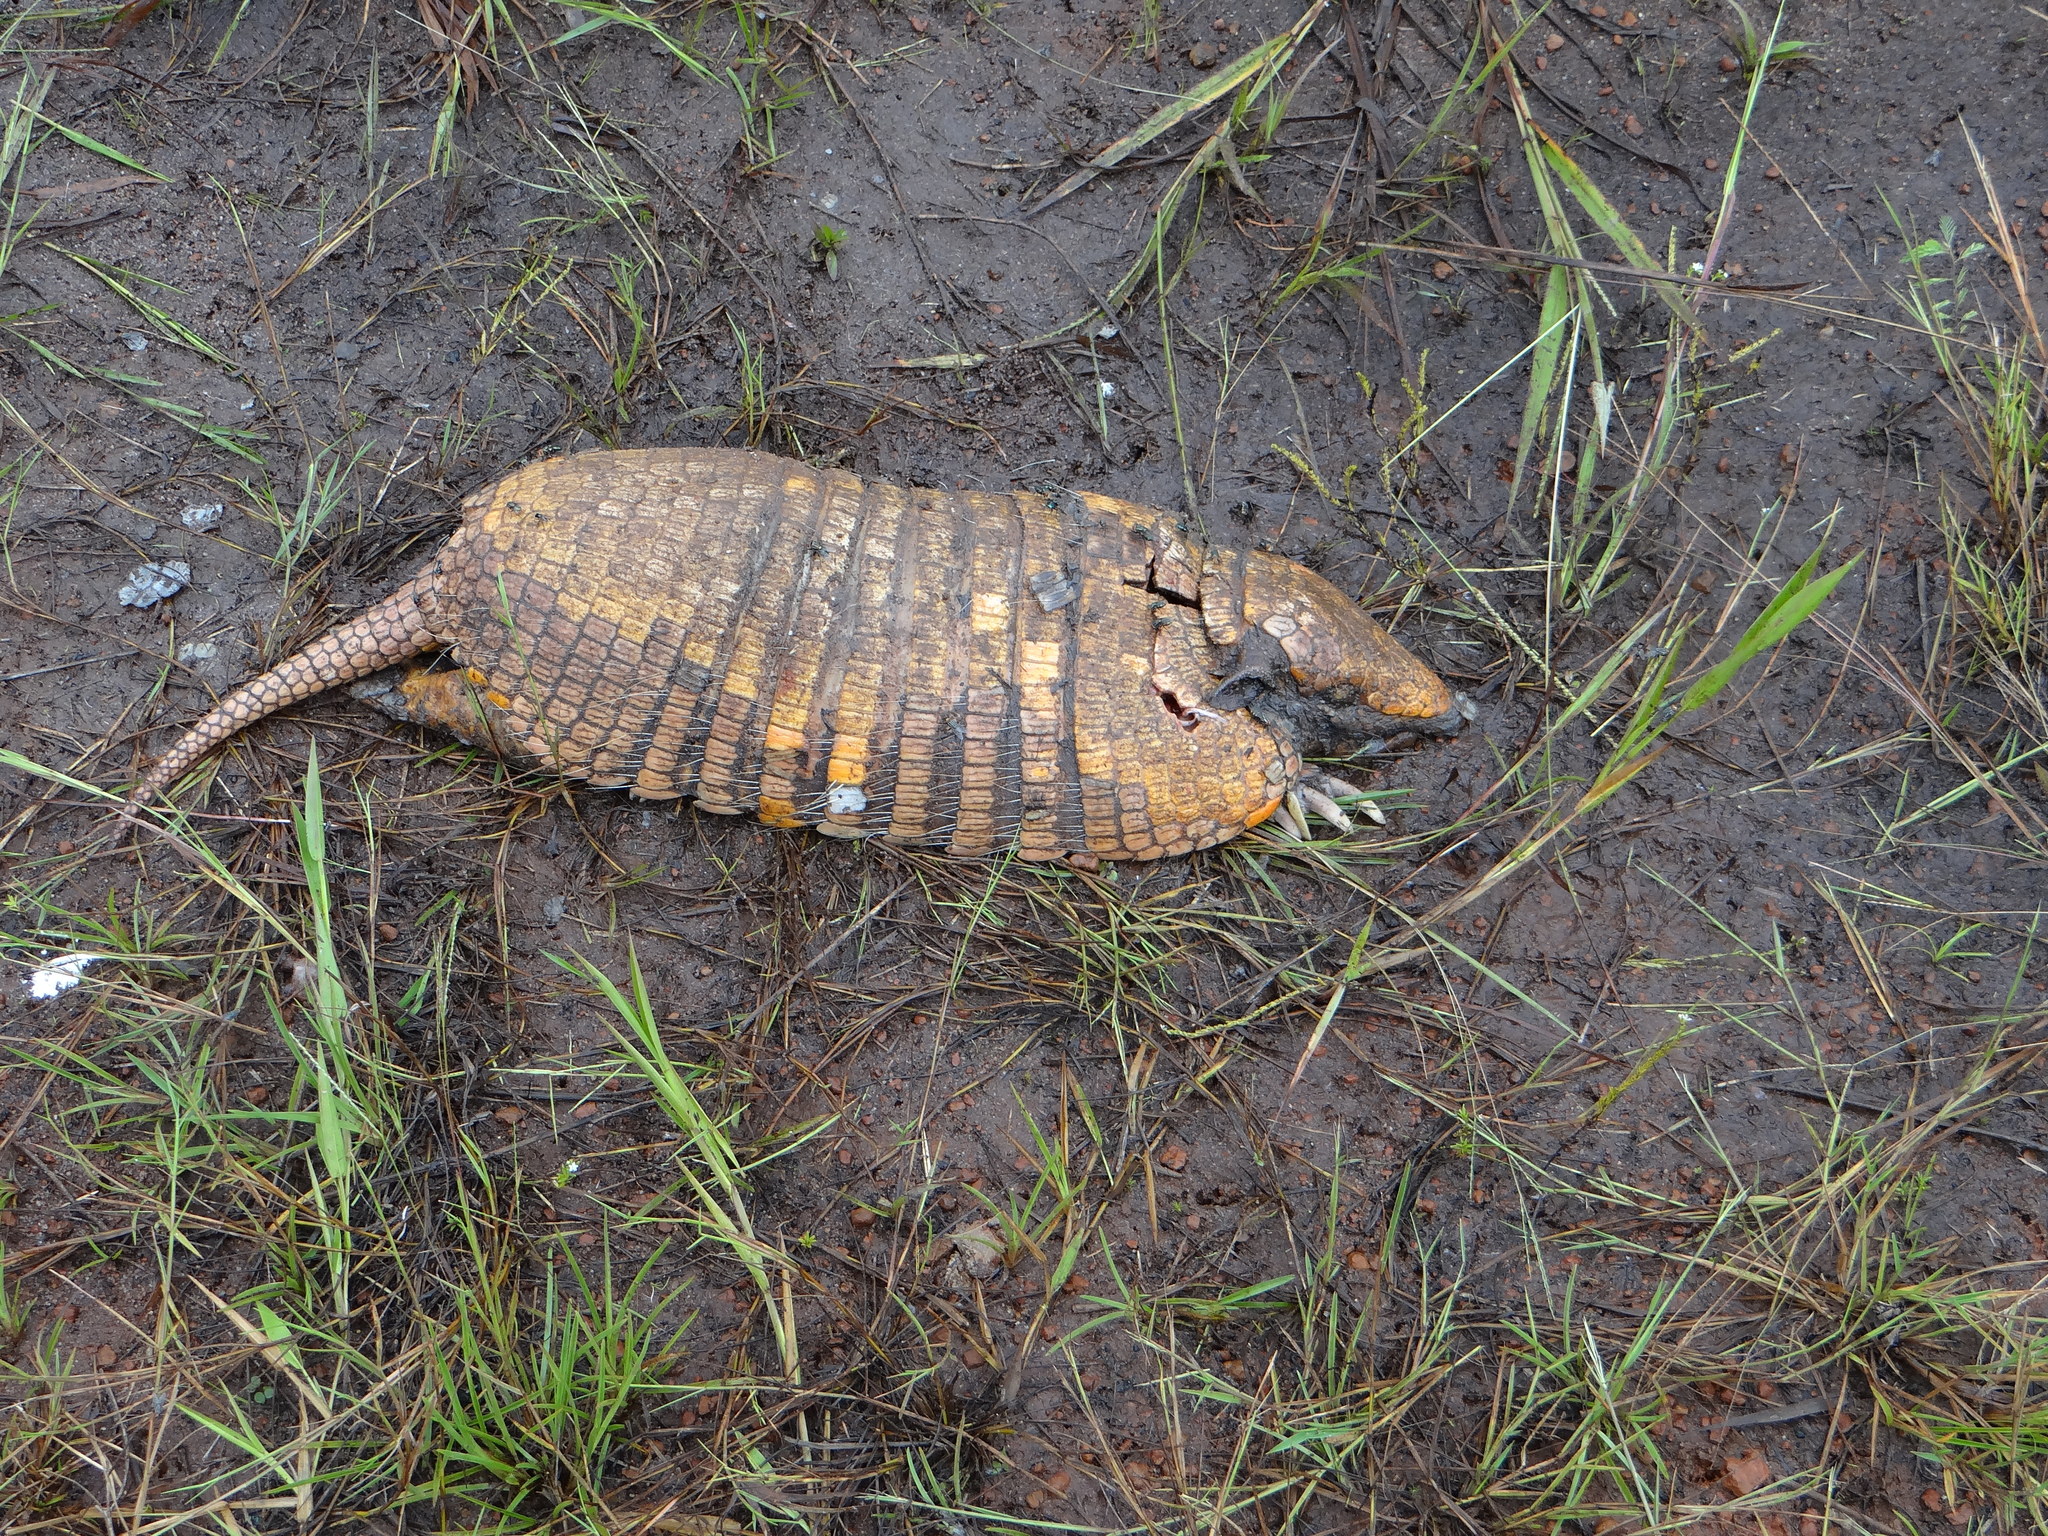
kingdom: Animalia
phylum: Chordata
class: Mammalia
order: Cingulata
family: Dasypodidae
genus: Euphractus
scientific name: Euphractus sexcinctus
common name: Six-banded armadillo
